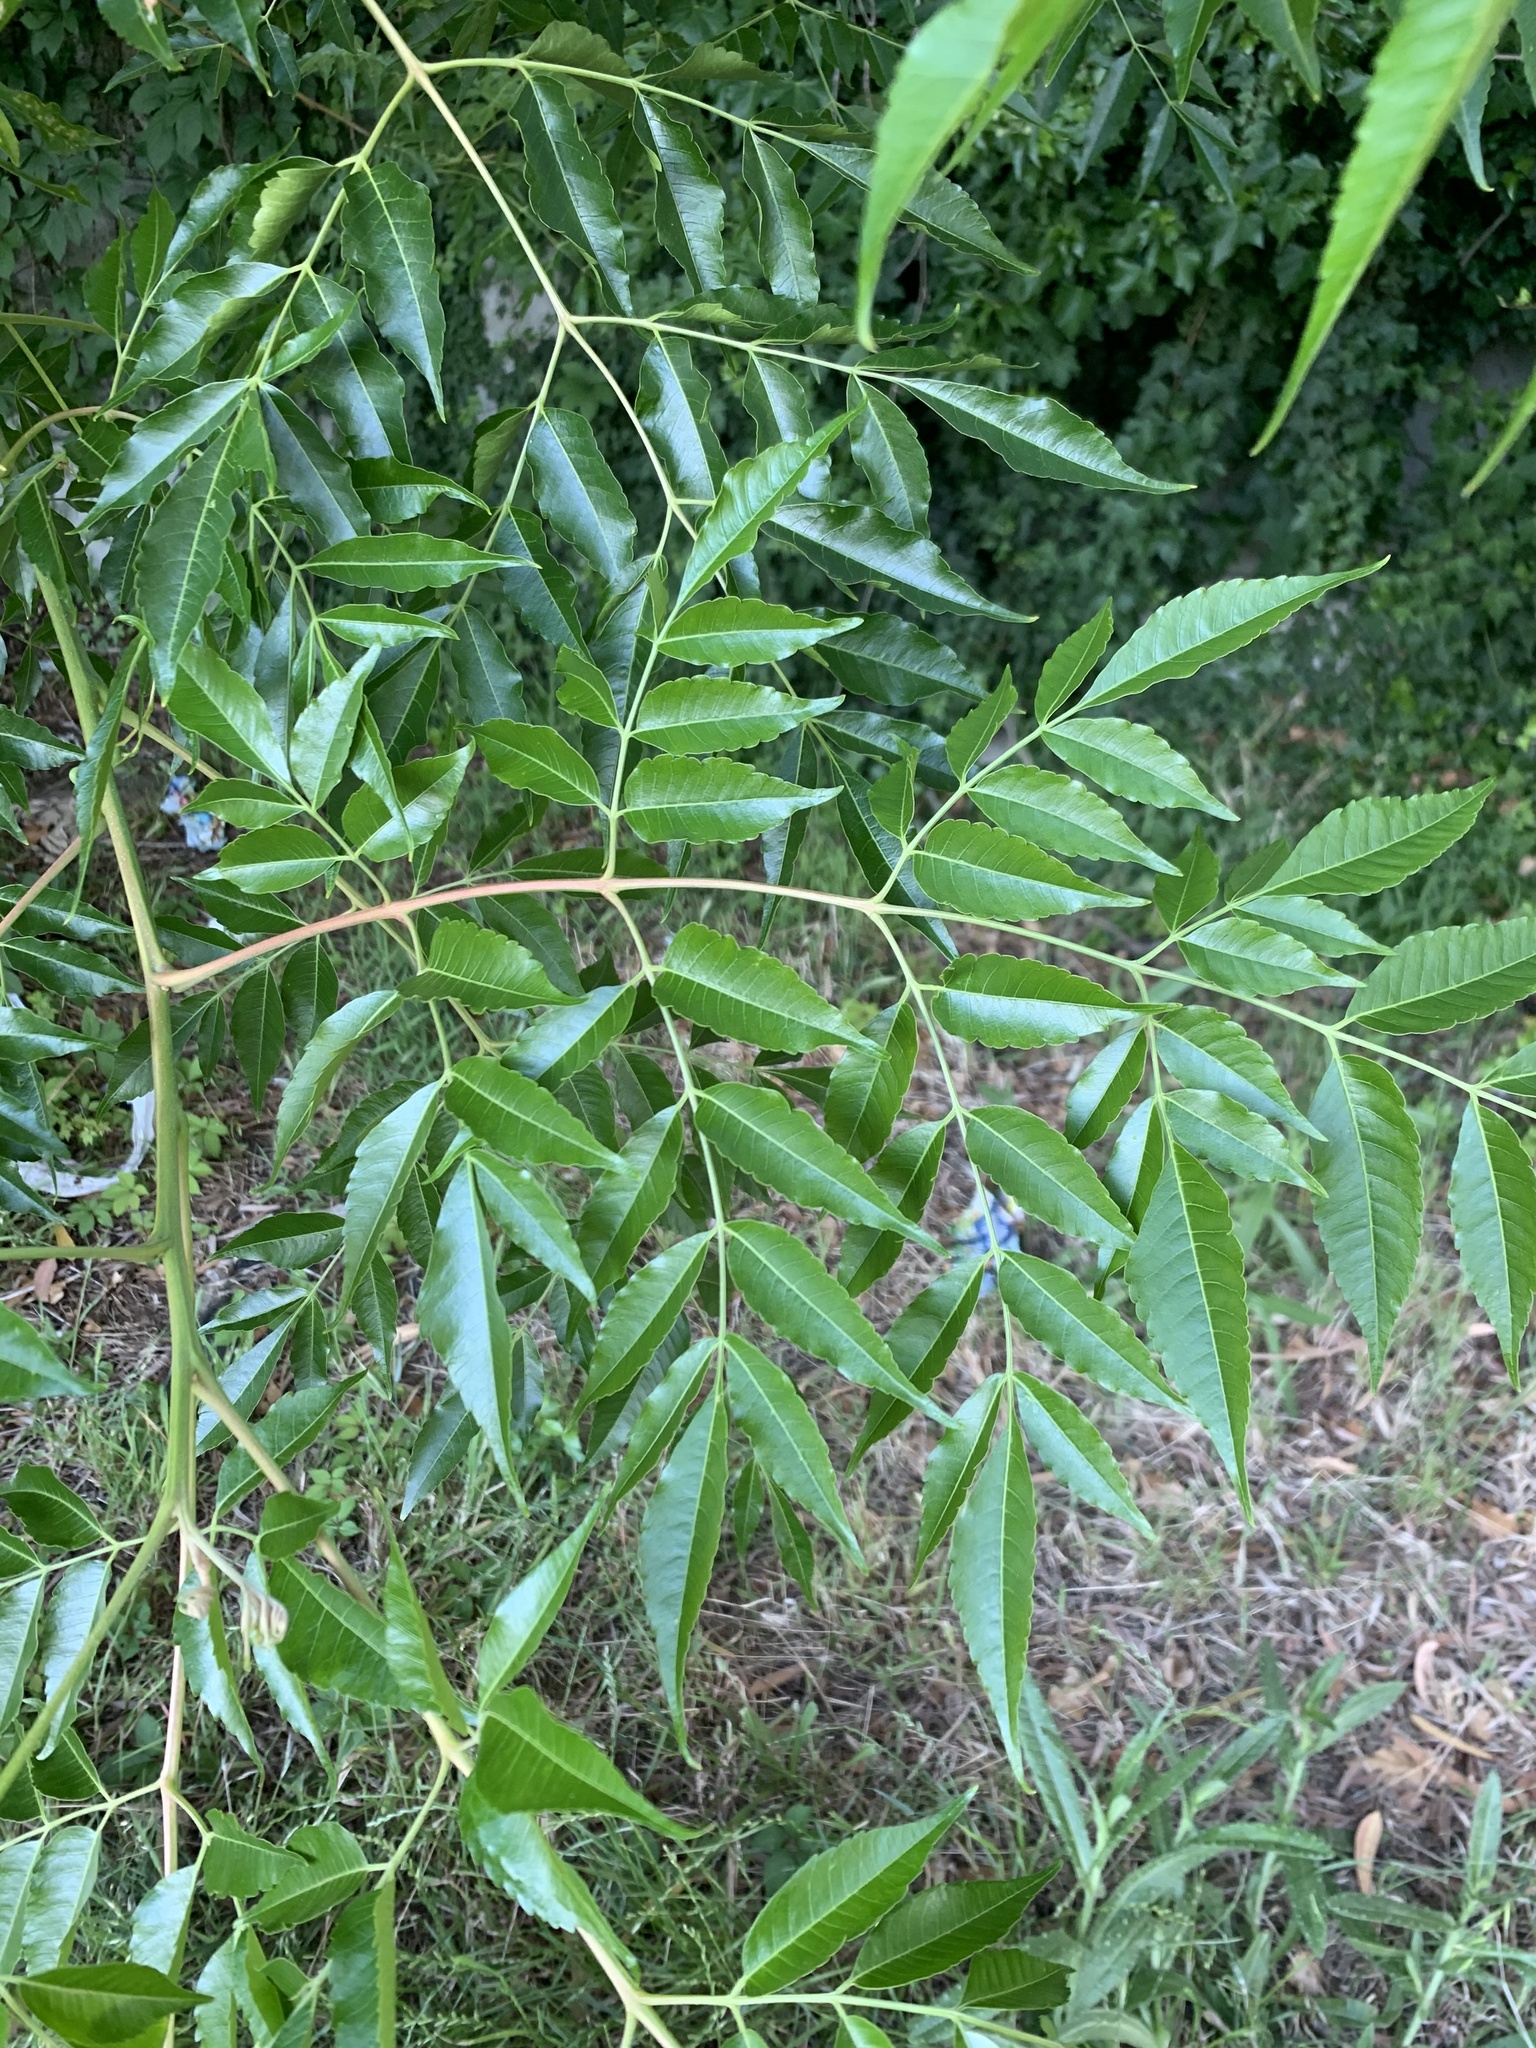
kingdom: Plantae
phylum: Tracheophyta
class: Magnoliopsida
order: Sapindales
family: Meliaceae
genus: Melia
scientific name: Melia azedarach
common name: Chinaberrytree
